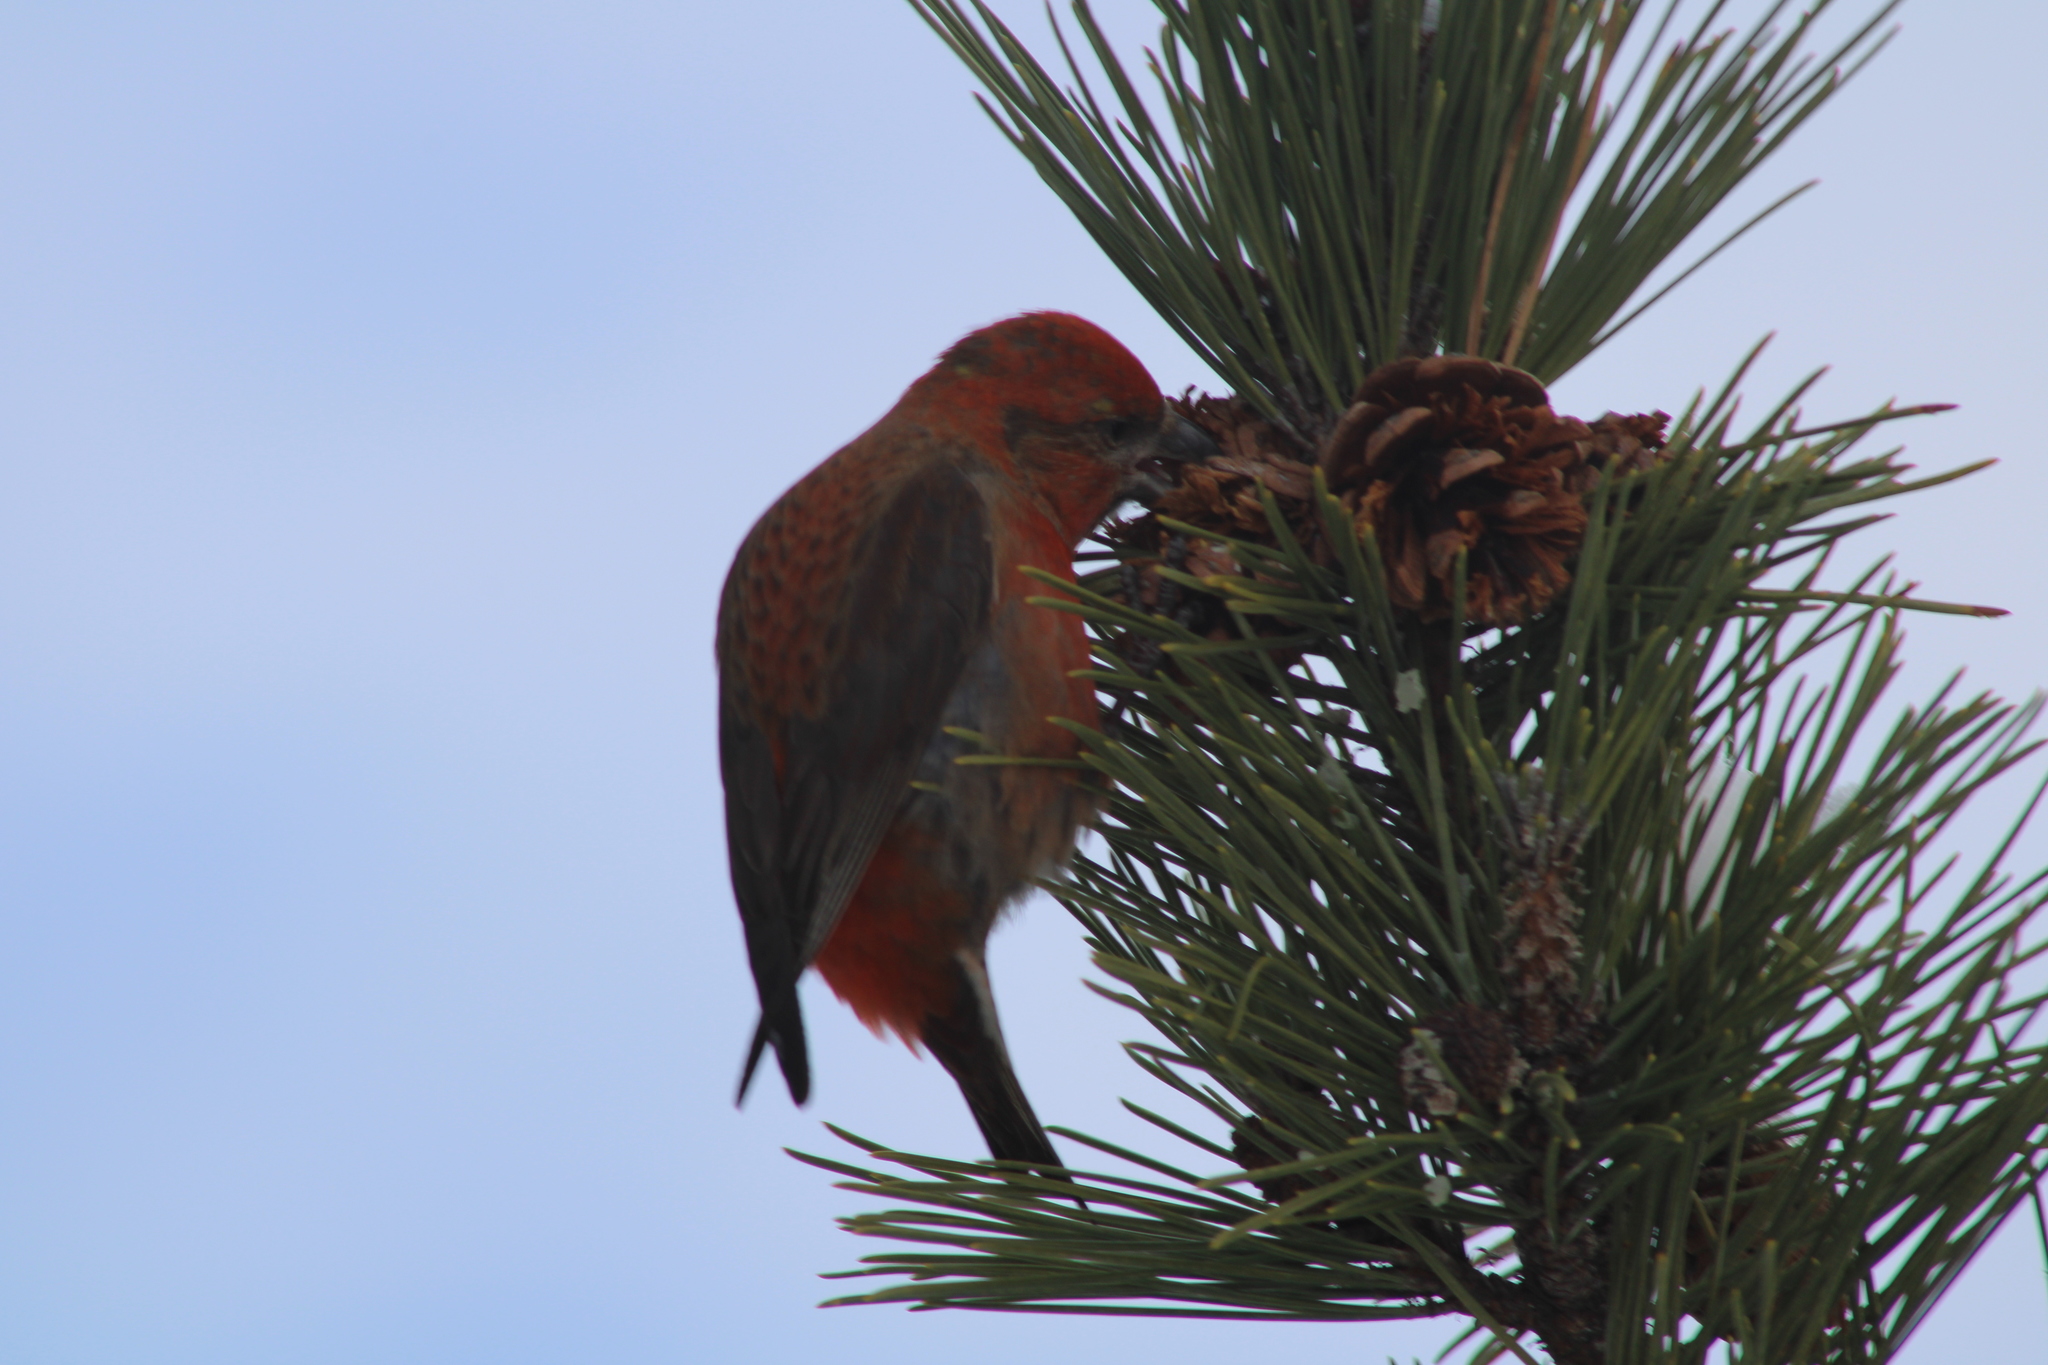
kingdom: Animalia
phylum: Chordata
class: Aves
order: Passeriformes
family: Fringillidae
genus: Loxia
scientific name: Loxia curvirostra
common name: Red crossbill
